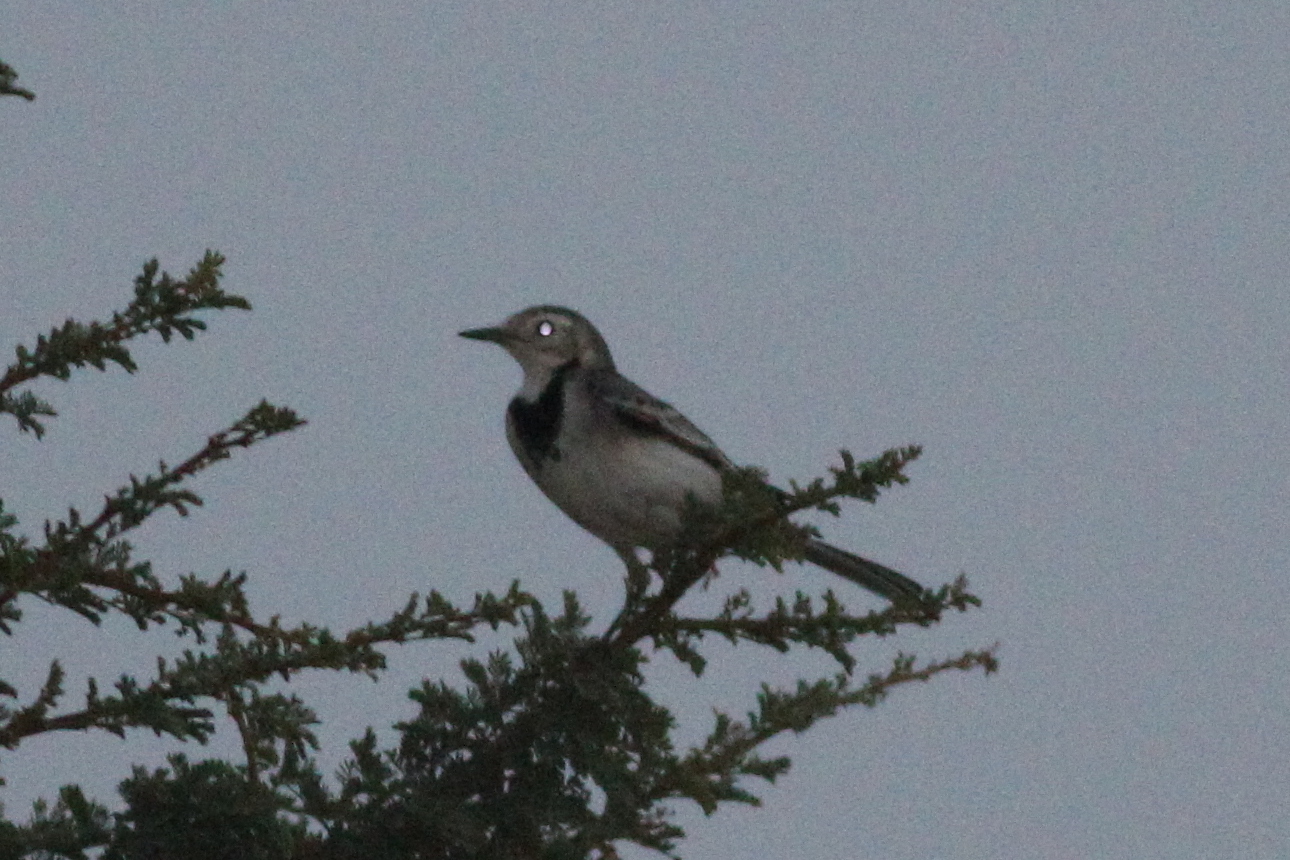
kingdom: Animalia
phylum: Chordata
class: Aves
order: Passeriformes
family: Motacillidae
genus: Motacilla
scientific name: Motacilla alba
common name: White wagtail
